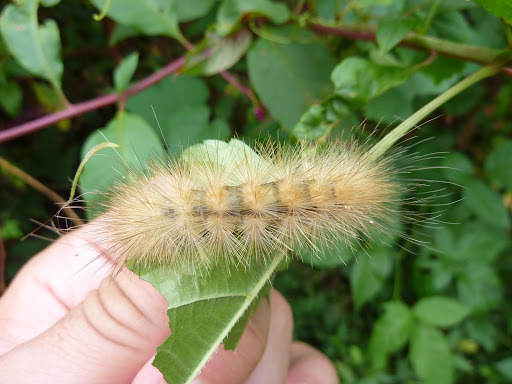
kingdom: Animalia
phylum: Arthropoda
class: Insecta
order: Lepidoptera
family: Erebidae
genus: Spilosoma
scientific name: Spilosoma virginica
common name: Virginia tiger moth
